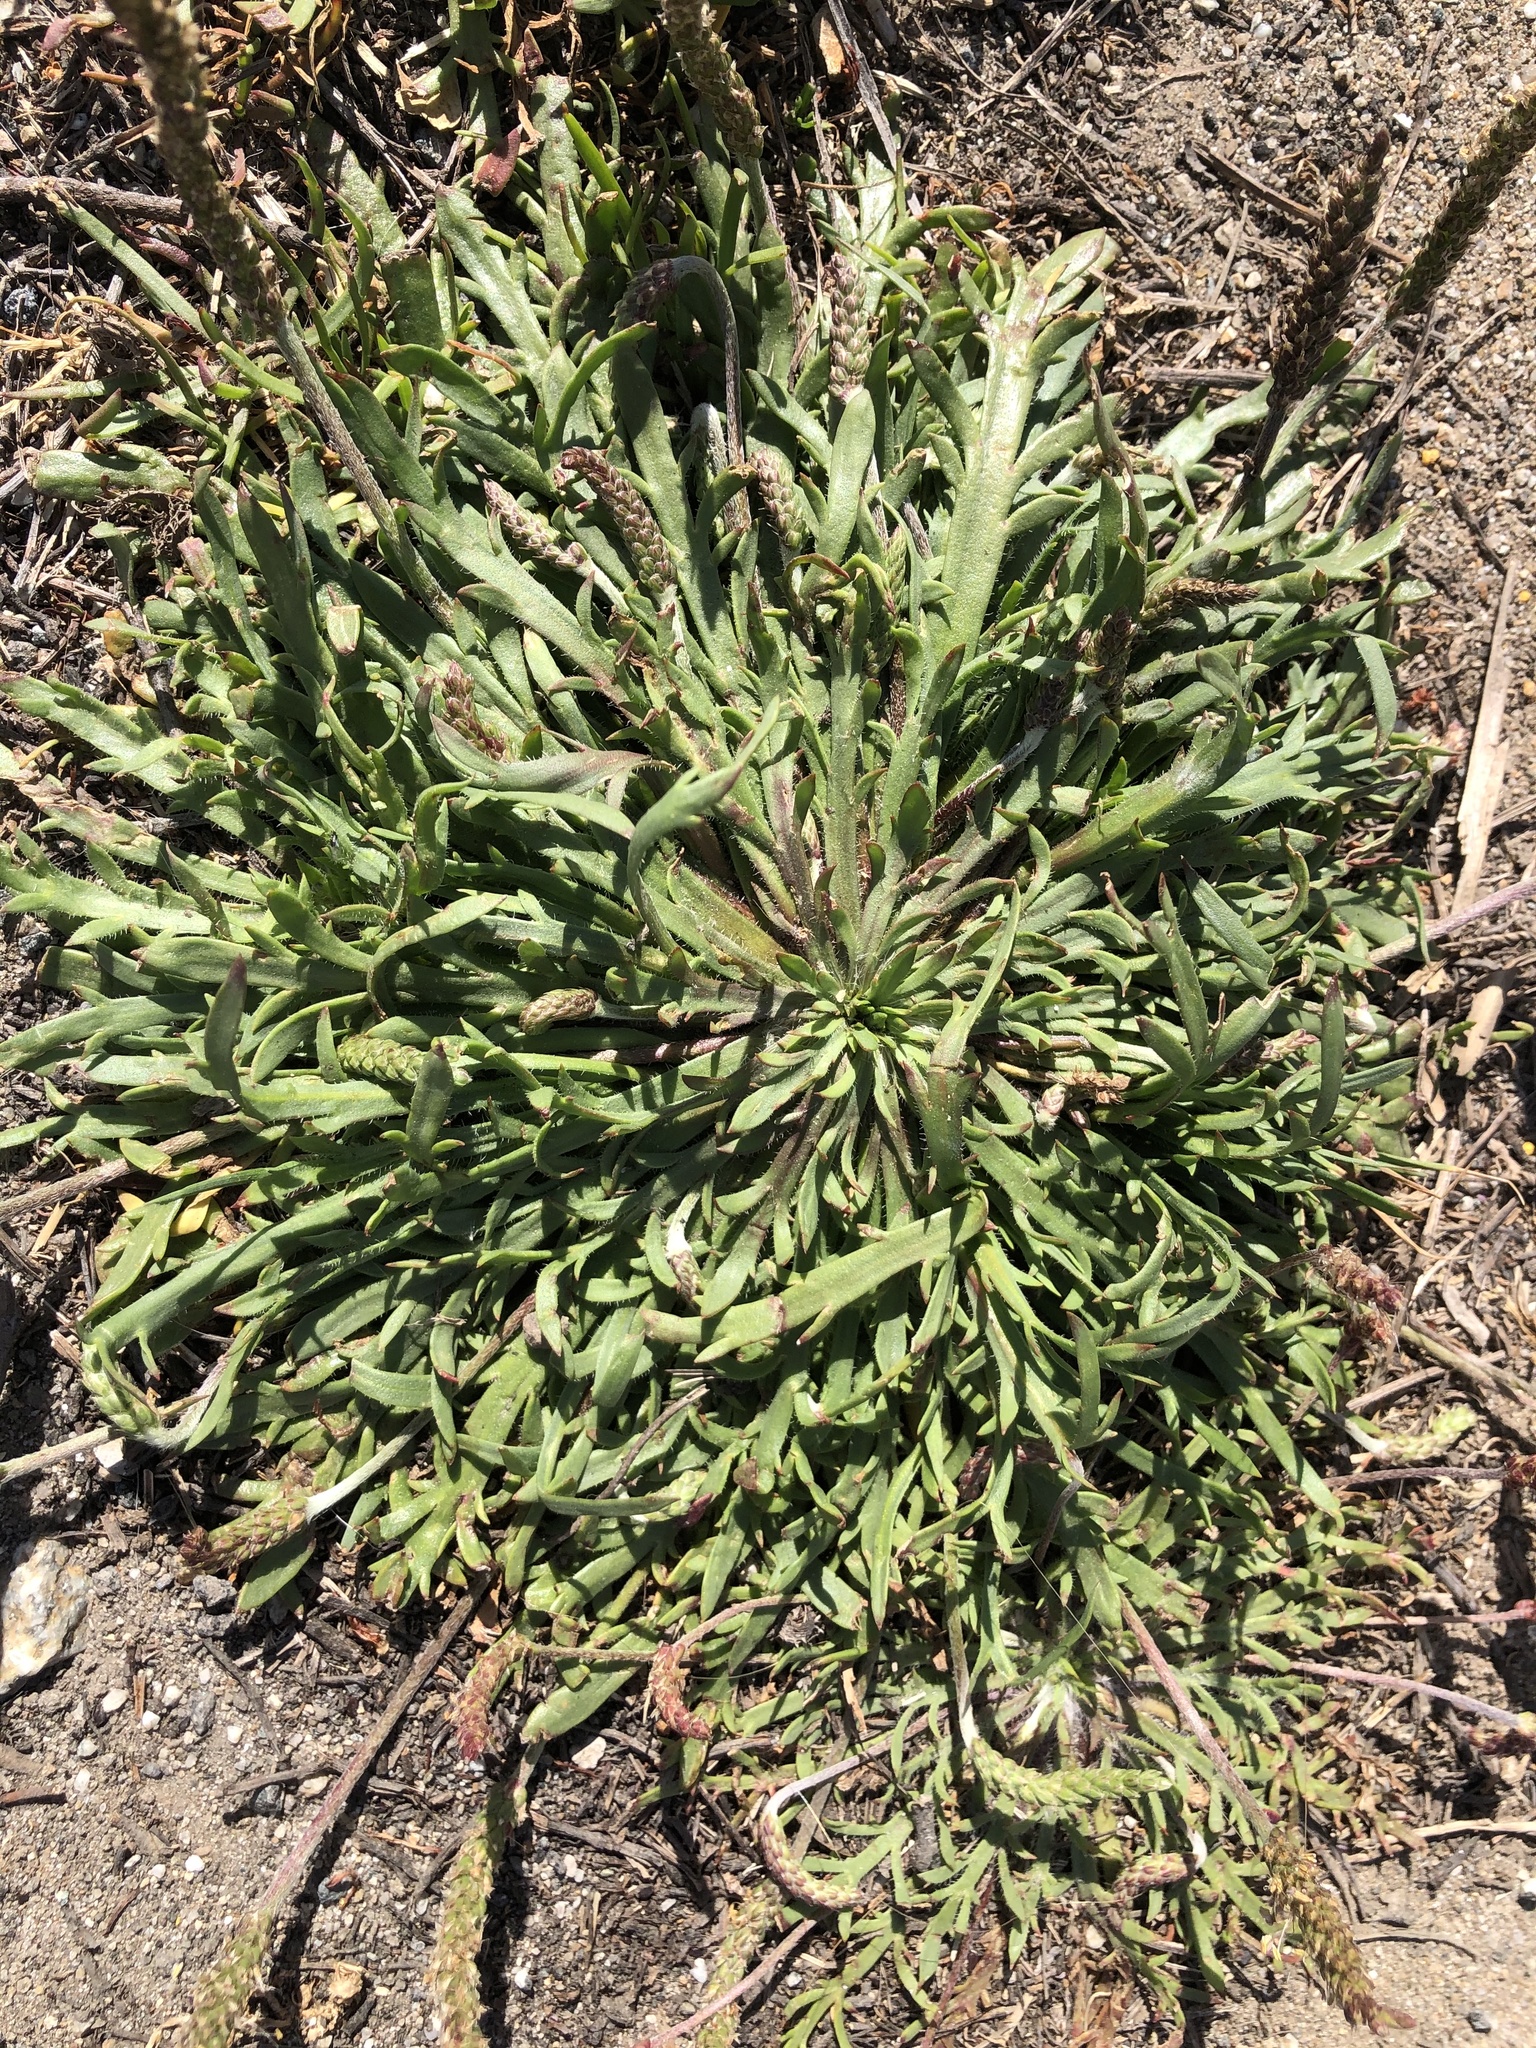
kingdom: Plantae
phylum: Tracheophyta
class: Magnoliopsida
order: Lamiales
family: Plantaginaceae
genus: Plantago
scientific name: Plantago coronopus
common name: Buck's-horn plantain
